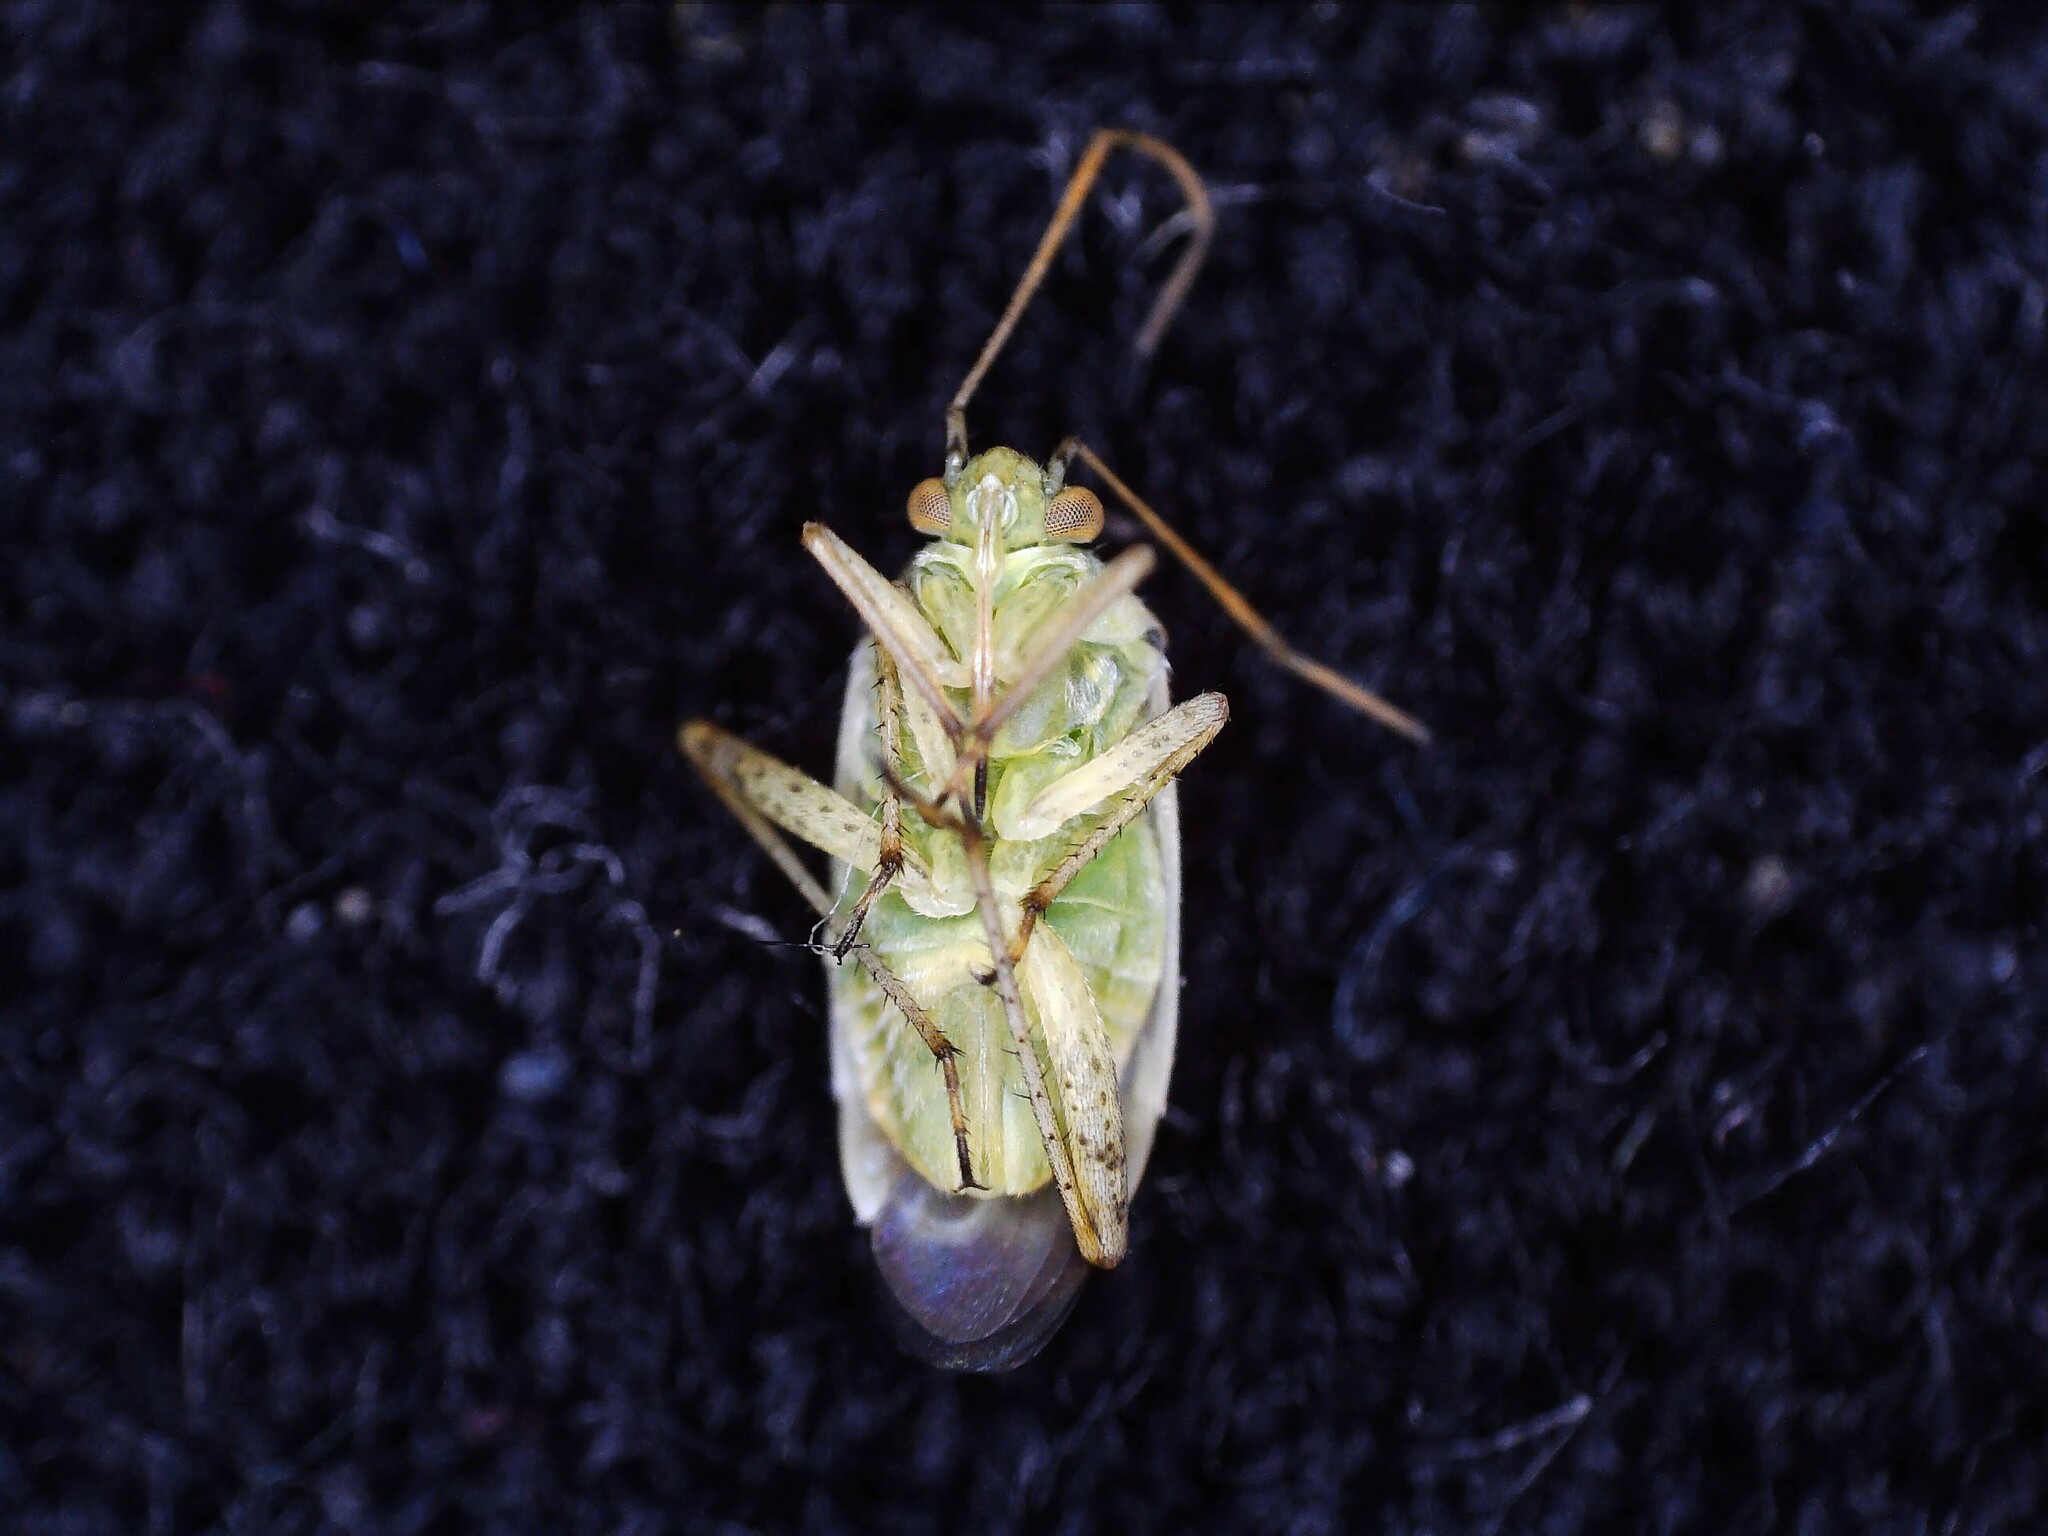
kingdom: Animalia
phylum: Arthropoda
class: Insecta
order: Hemiptera
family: Miridae
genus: Polymerus
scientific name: Polymerus vulneratus
